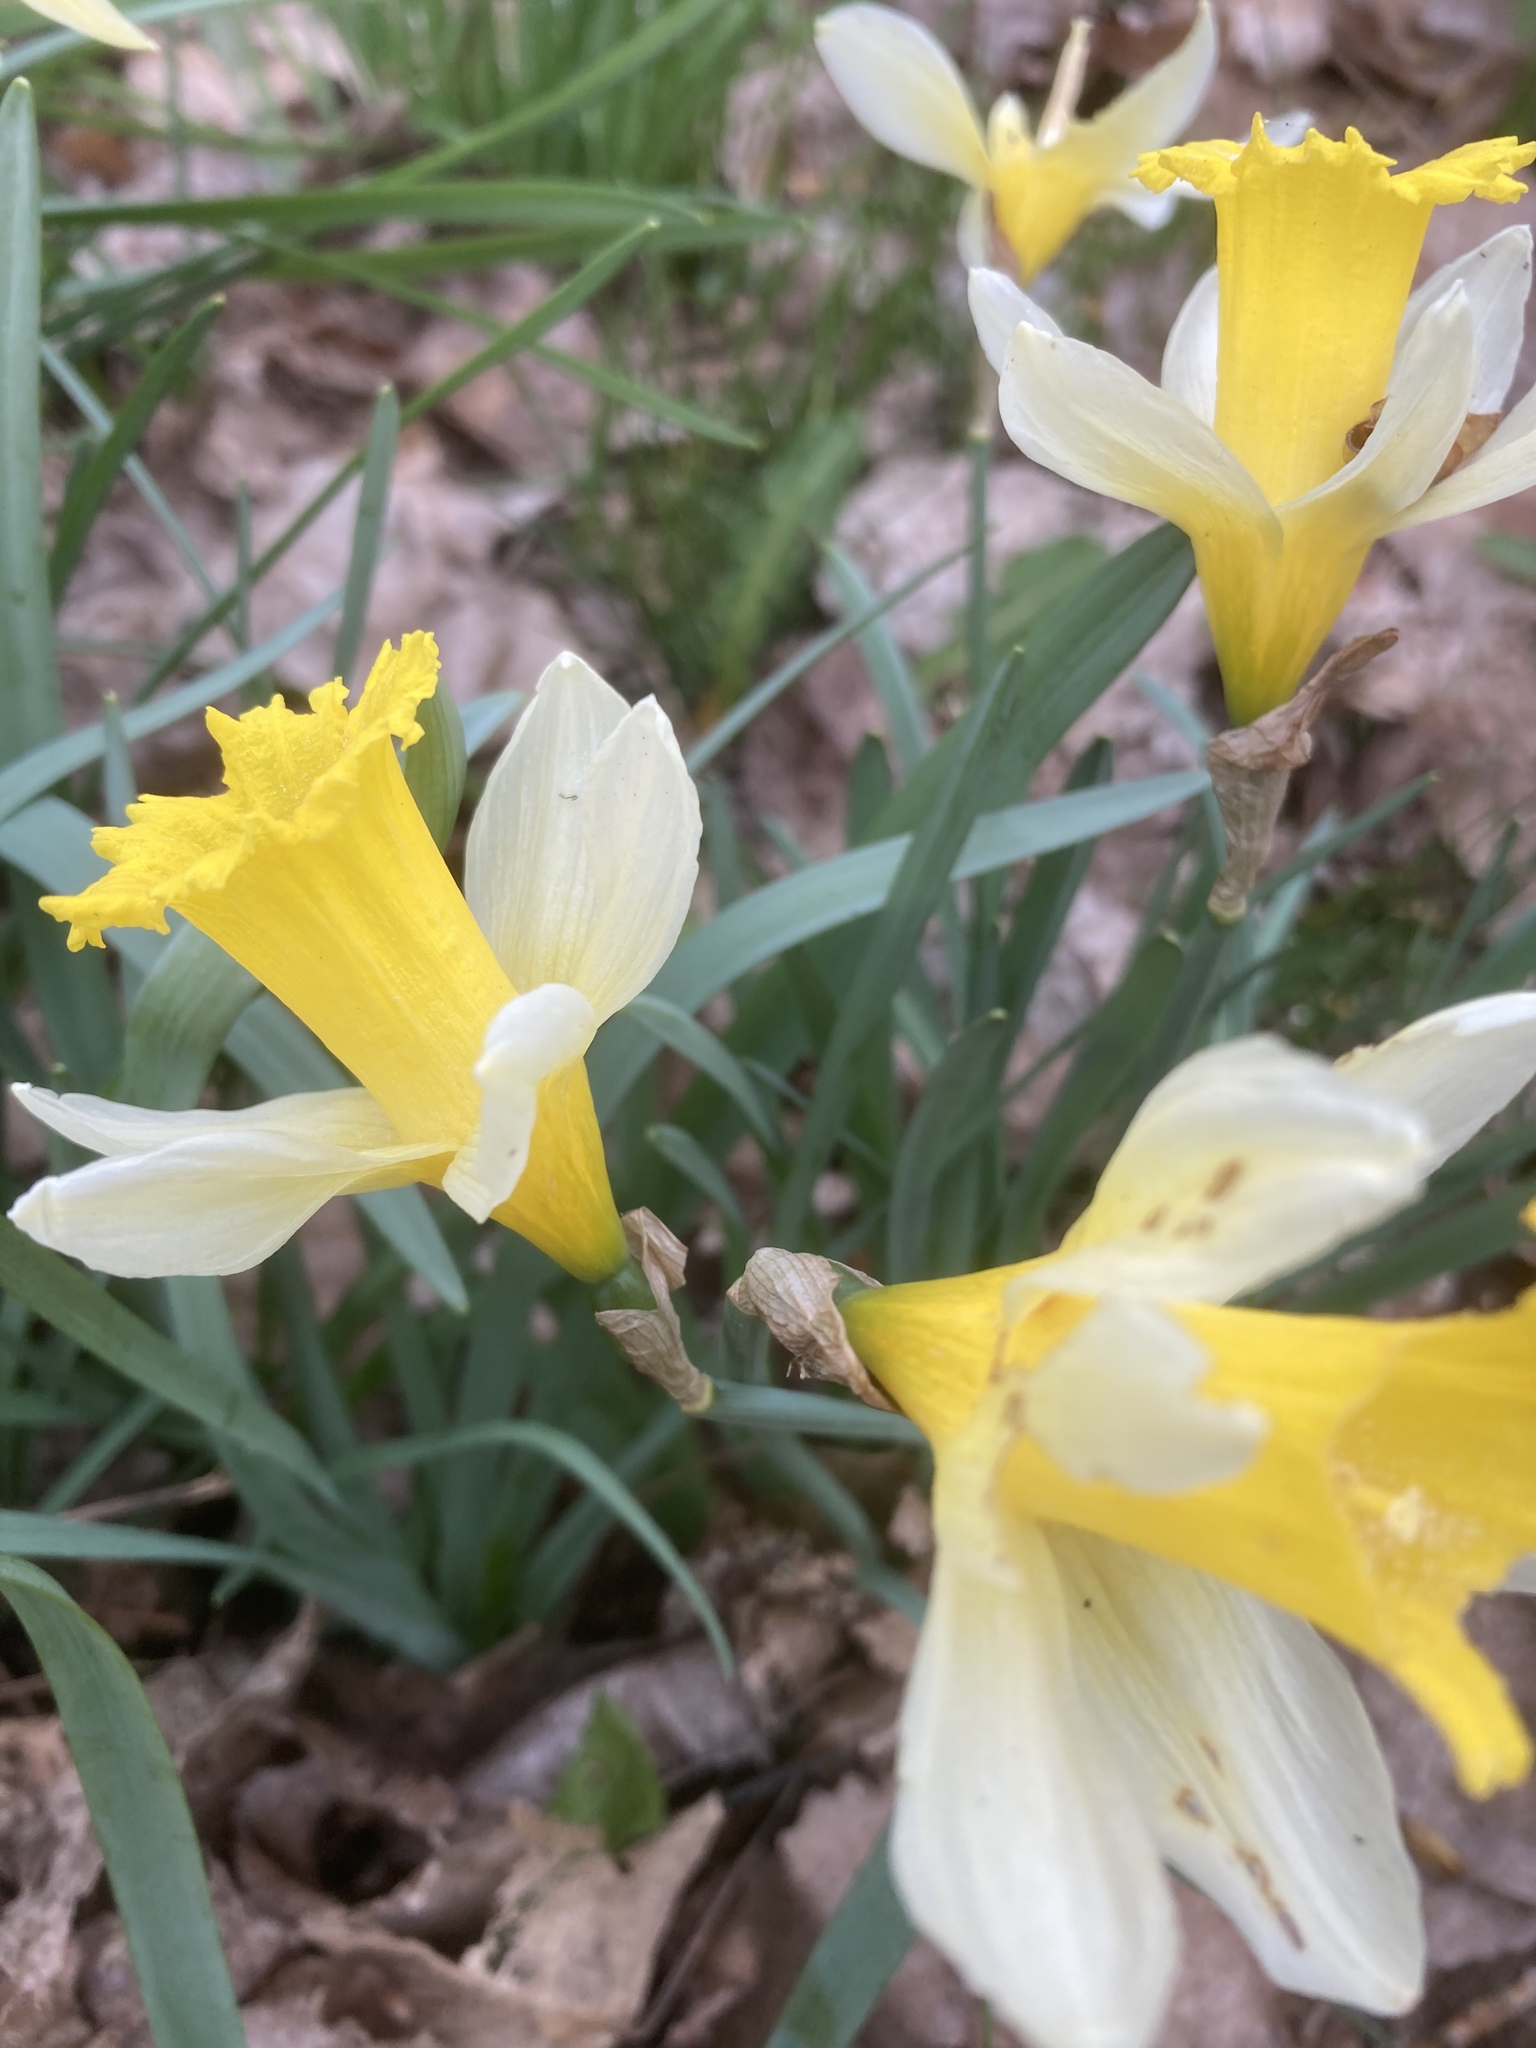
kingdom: Plantae
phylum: Tracheophyta
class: Liliopsida
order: Asparagales
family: Amaryllidaceae
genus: Narcissus
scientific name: Narcissus pseudonarcissus
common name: Daffodil
